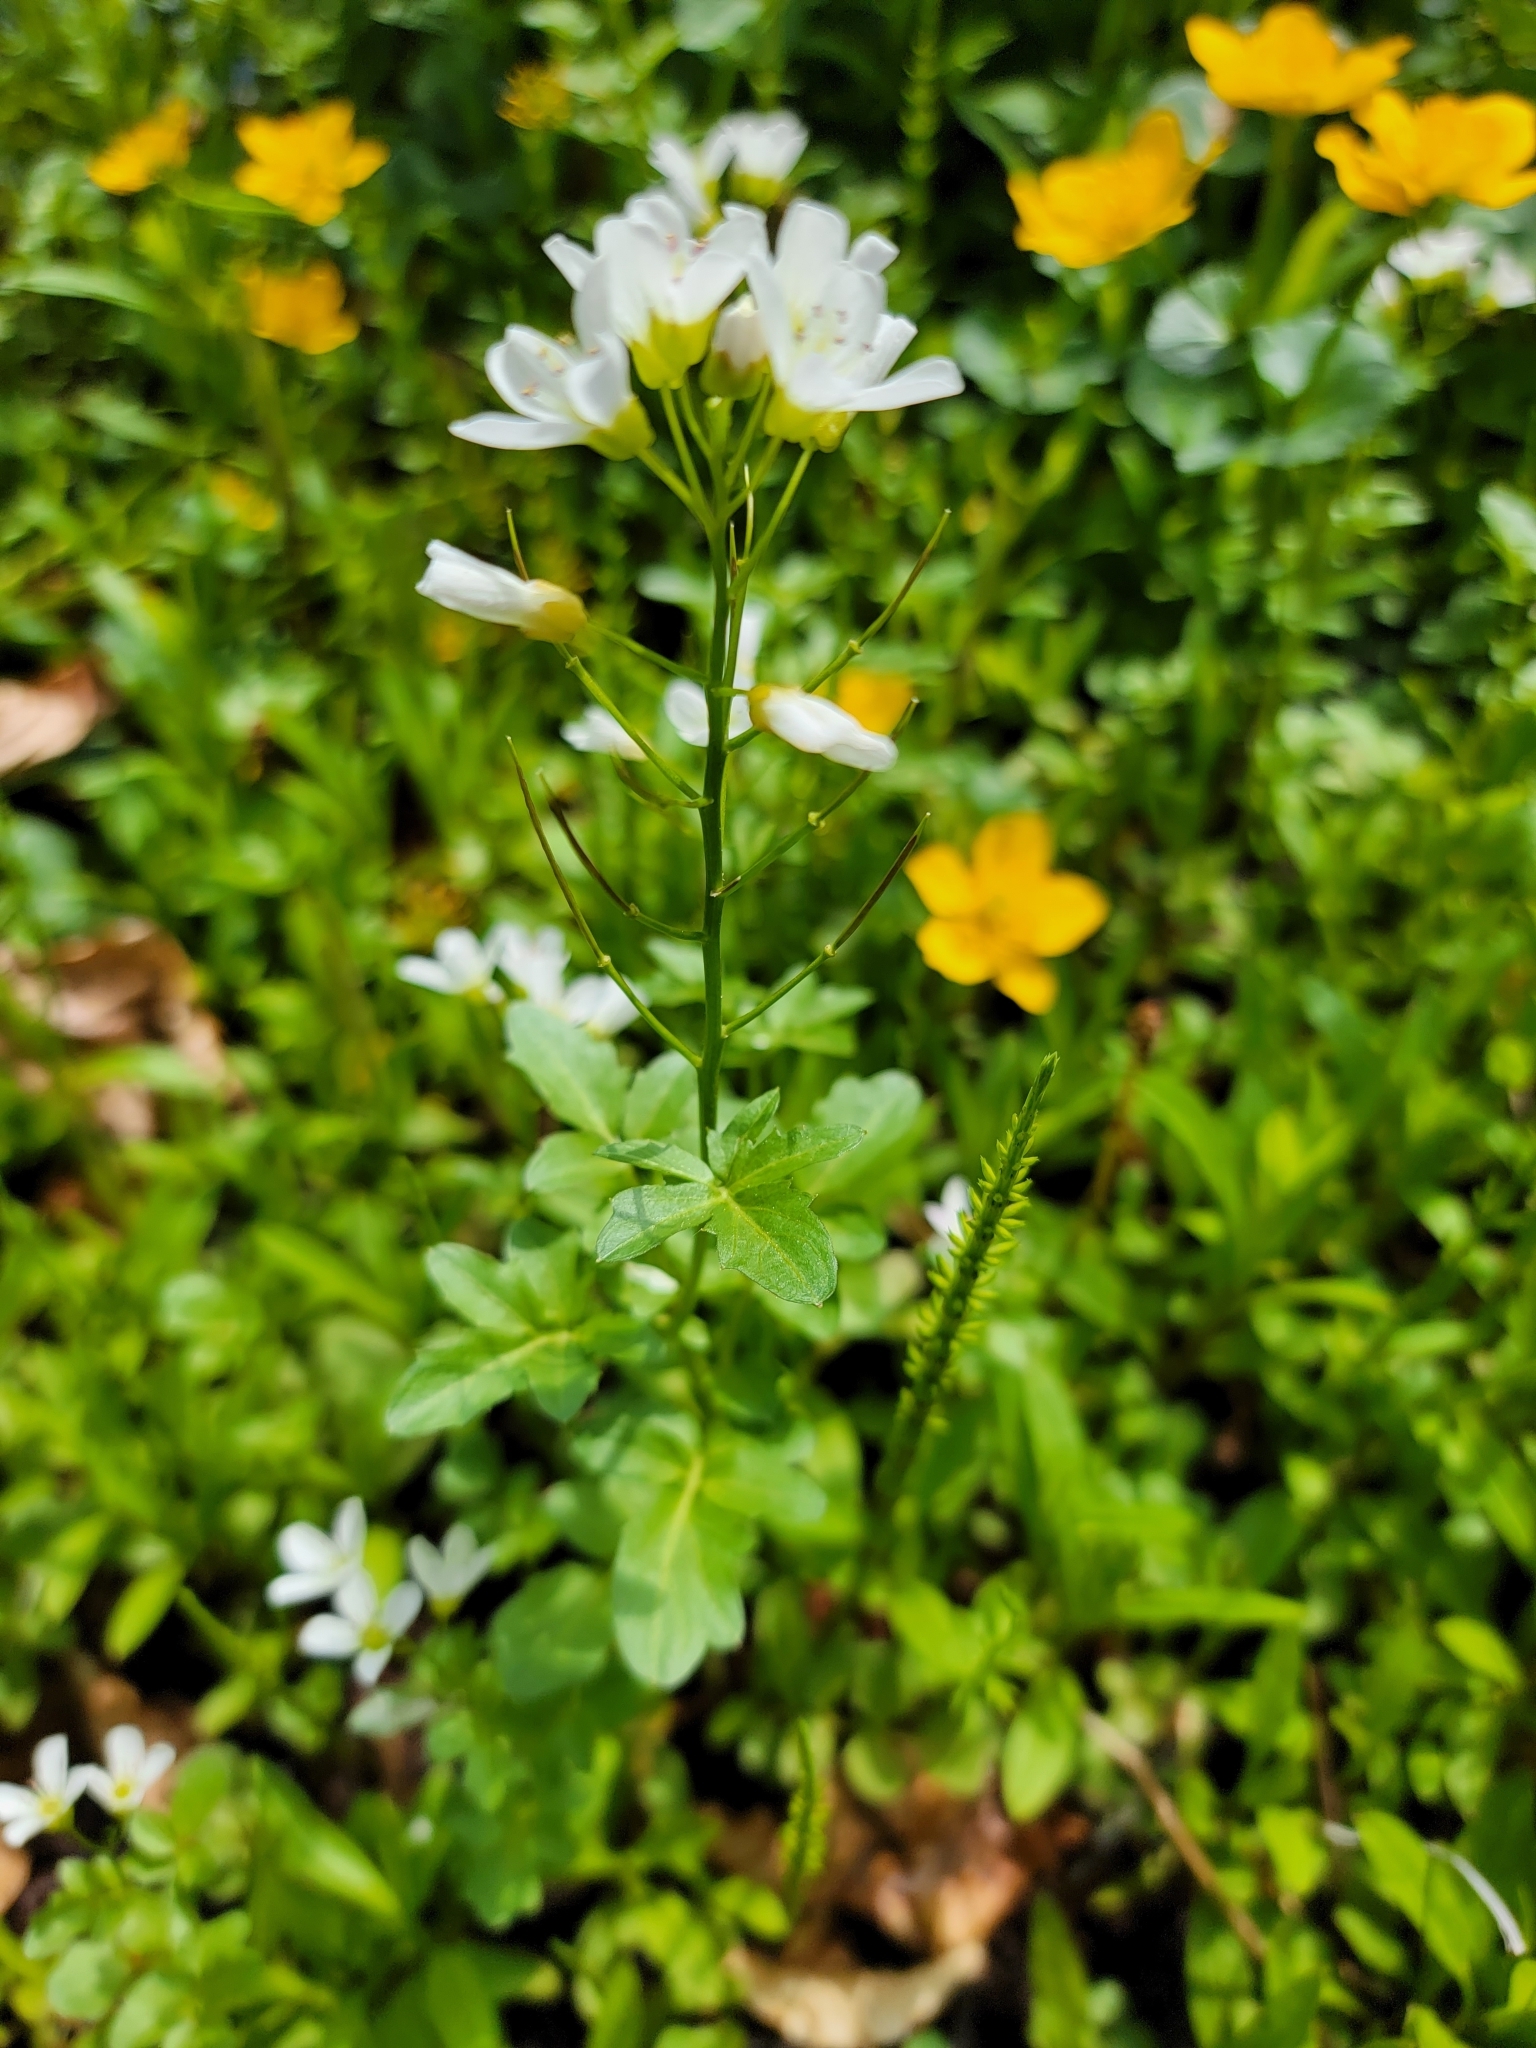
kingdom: Plantae
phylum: Tracheophyta
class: Magnoliopsida
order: Brassicales
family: Brassicaceae
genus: Cardamine
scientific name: Cardamine amara
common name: Large bitter-cress
